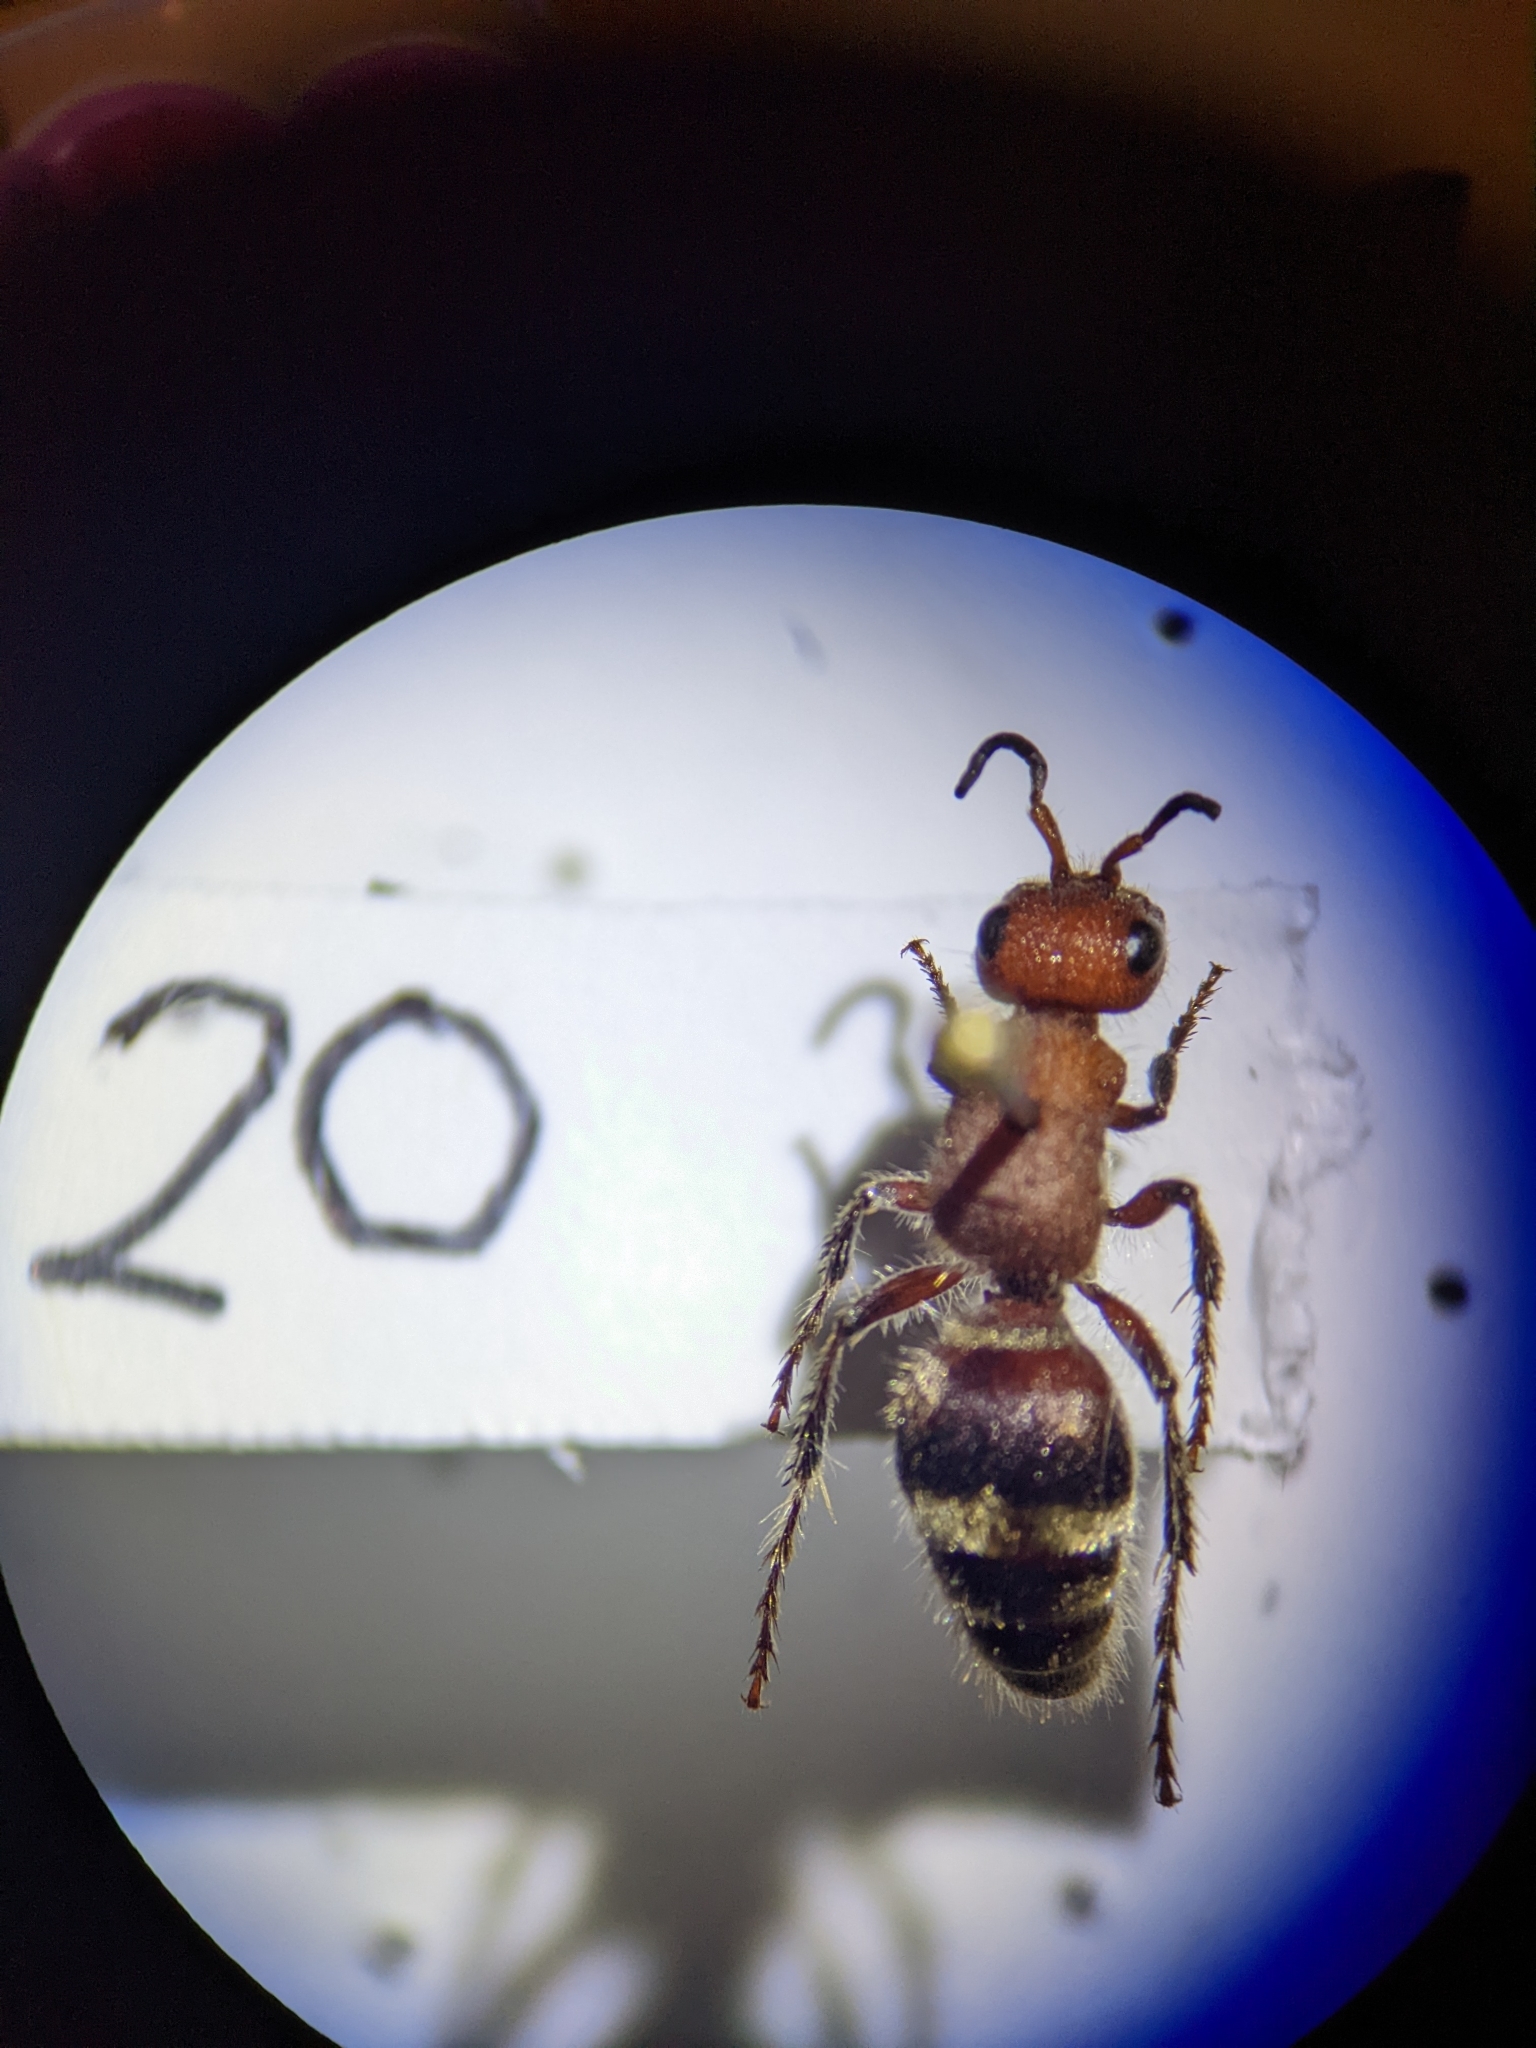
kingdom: Animalia
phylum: Arthropoda
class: Insecta
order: Hymenoptera
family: Mutillidae
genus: Timulla
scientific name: Timulla
